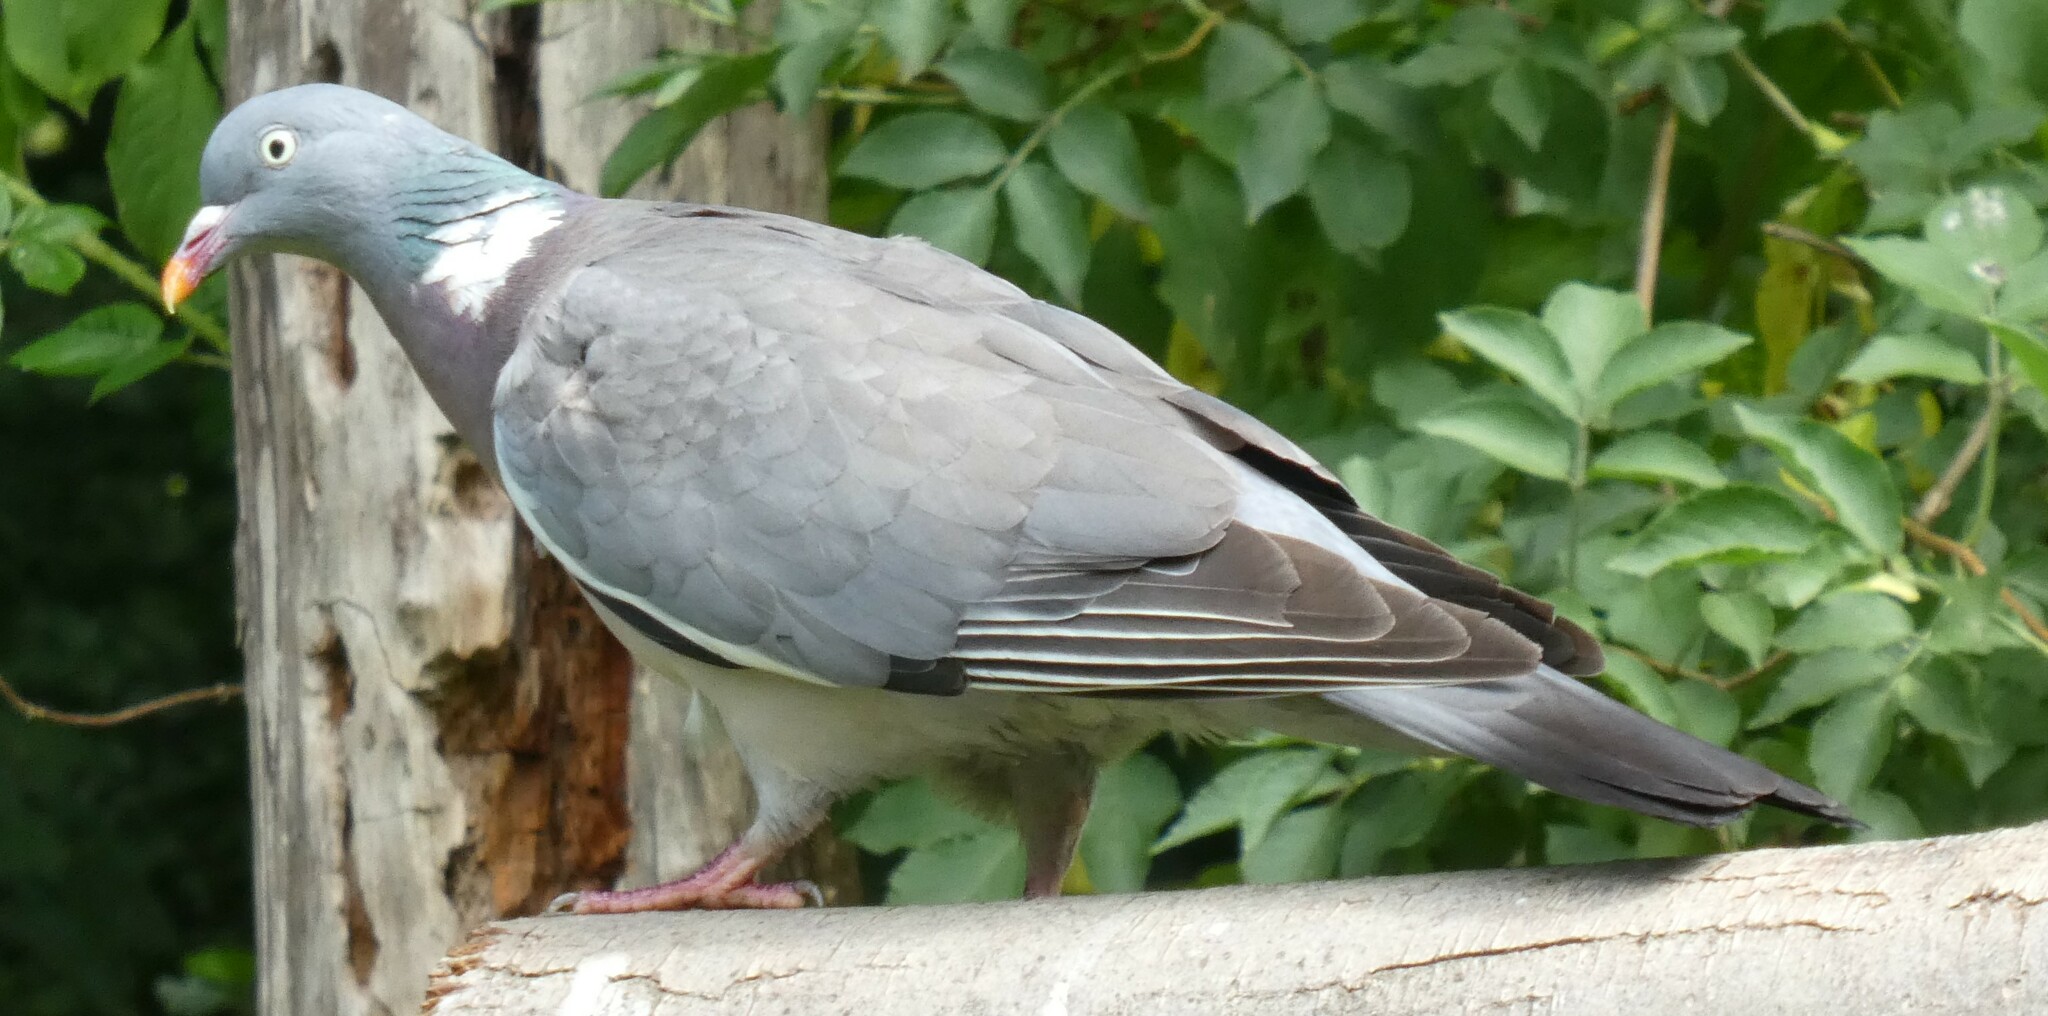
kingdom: Animalia
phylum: Chordata
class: Aves
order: Columbiformes
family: Columbidae
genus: Columba
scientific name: Columba palumbus
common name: Common wood pigeon
